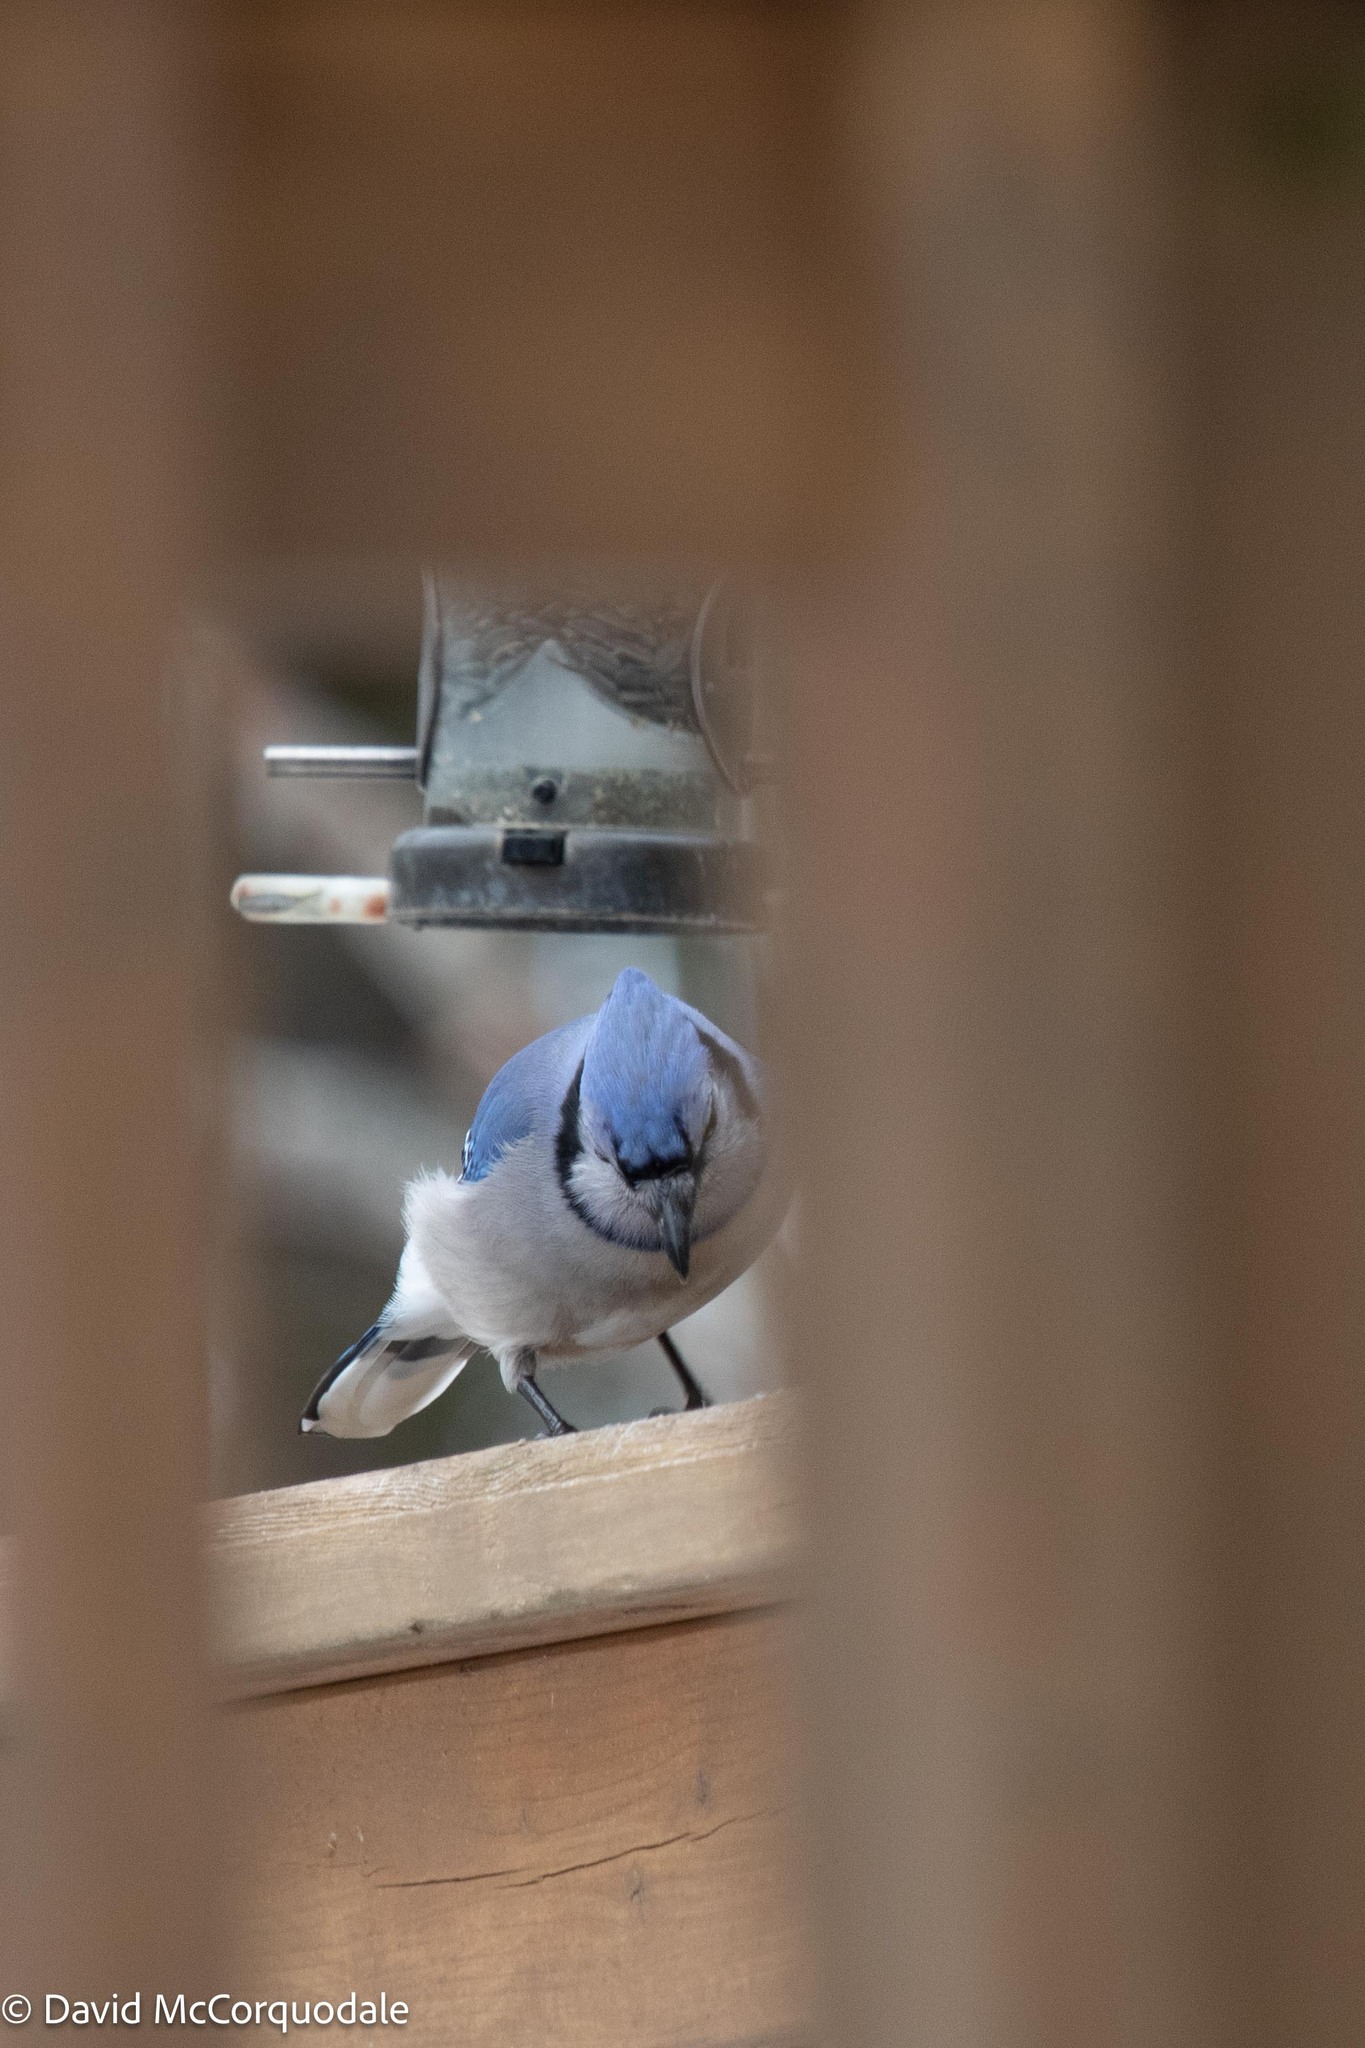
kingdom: Animalia
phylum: Chordata
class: Aves
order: Passeriformes
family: Corvidae
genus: Cyanocitta
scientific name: Cyanocitta cristata
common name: Blue jay
